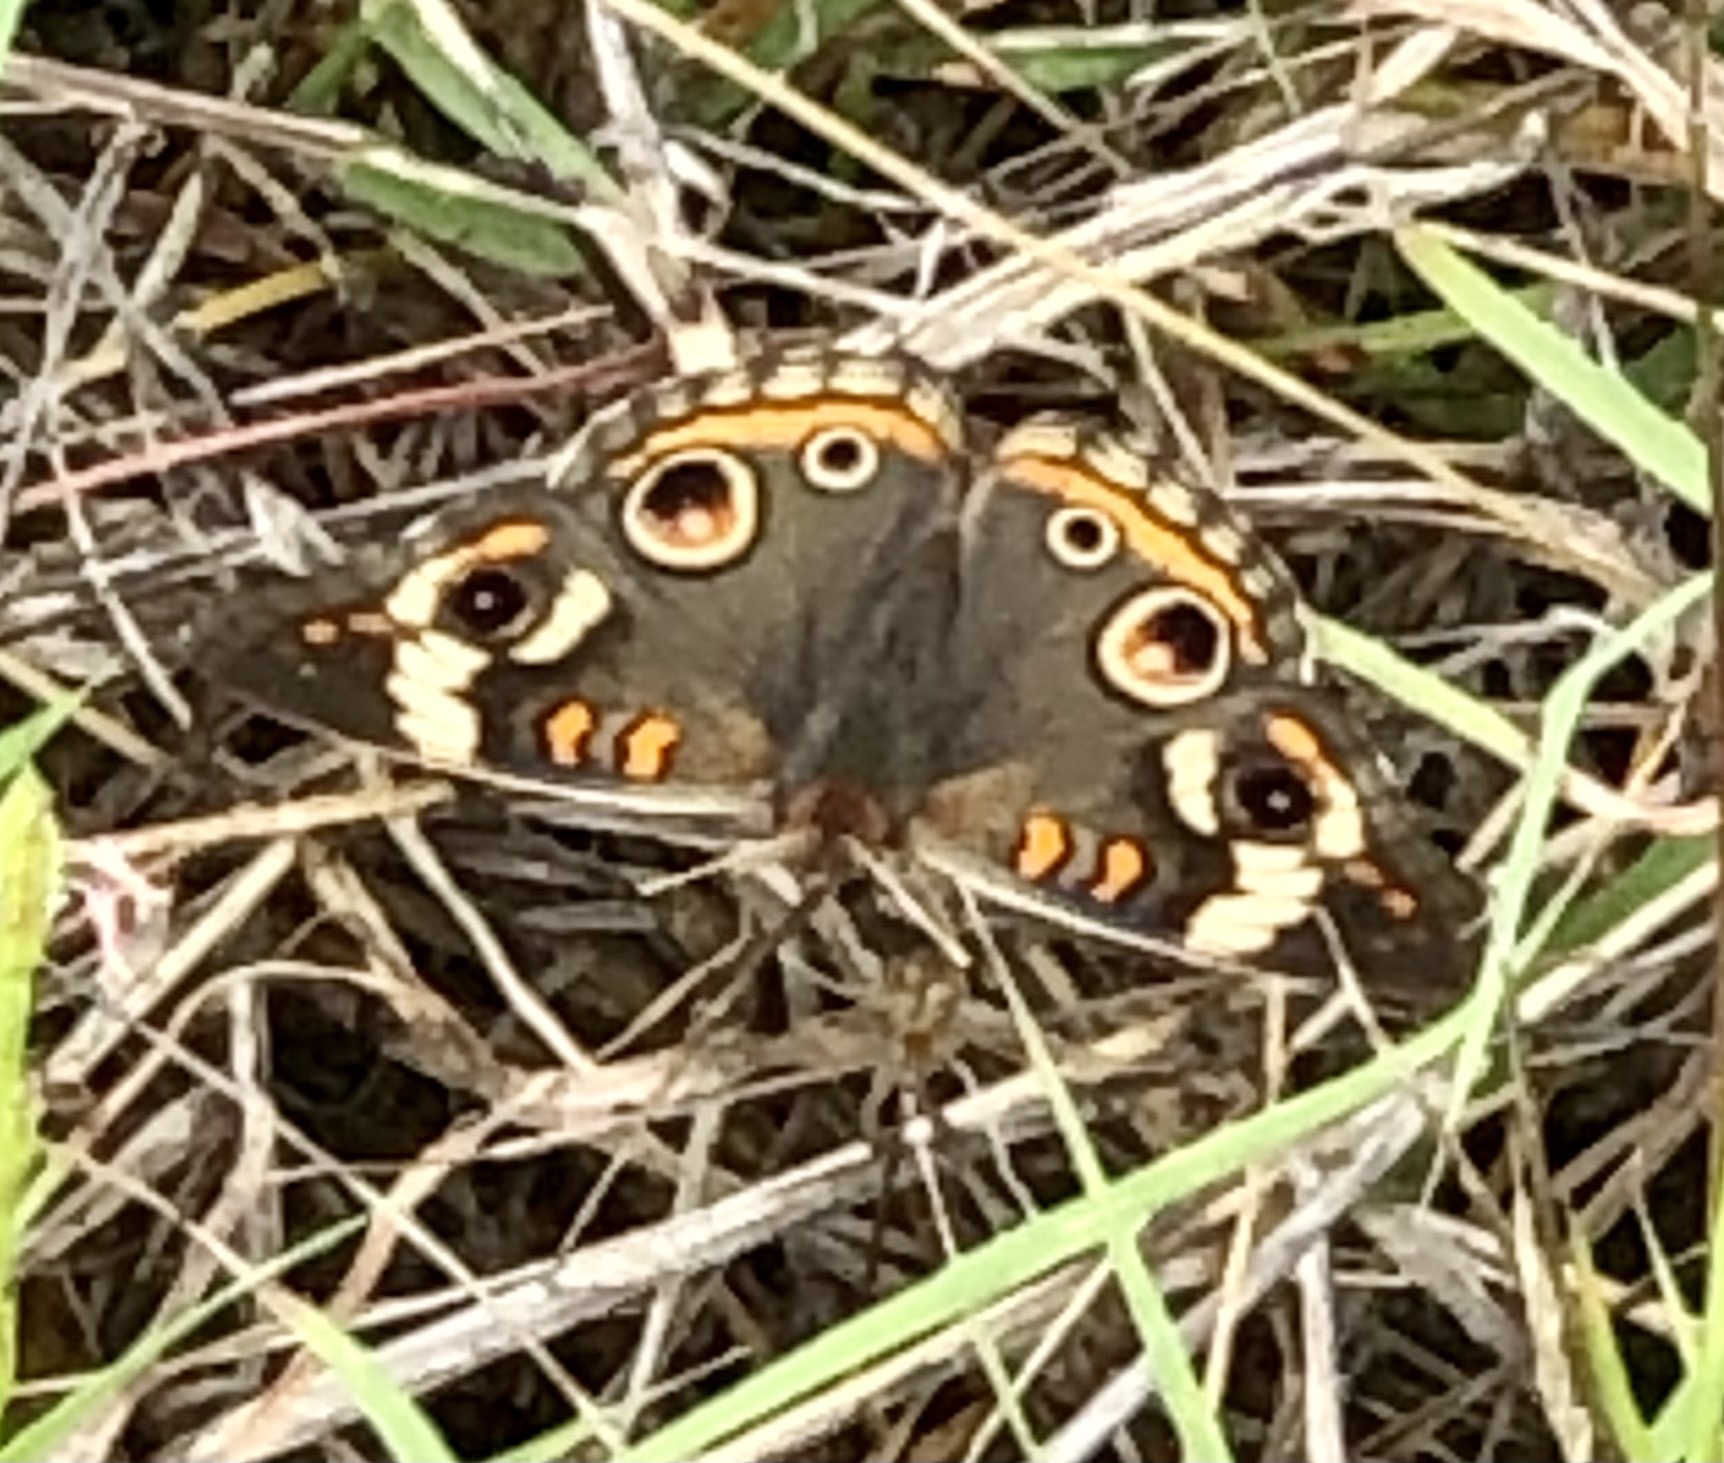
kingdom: Animalia
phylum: Arthropoda
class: Insecta
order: Lepidoptera
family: Nymphalidae
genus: Junonia
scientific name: Junonia coenia
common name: Common buckeye
